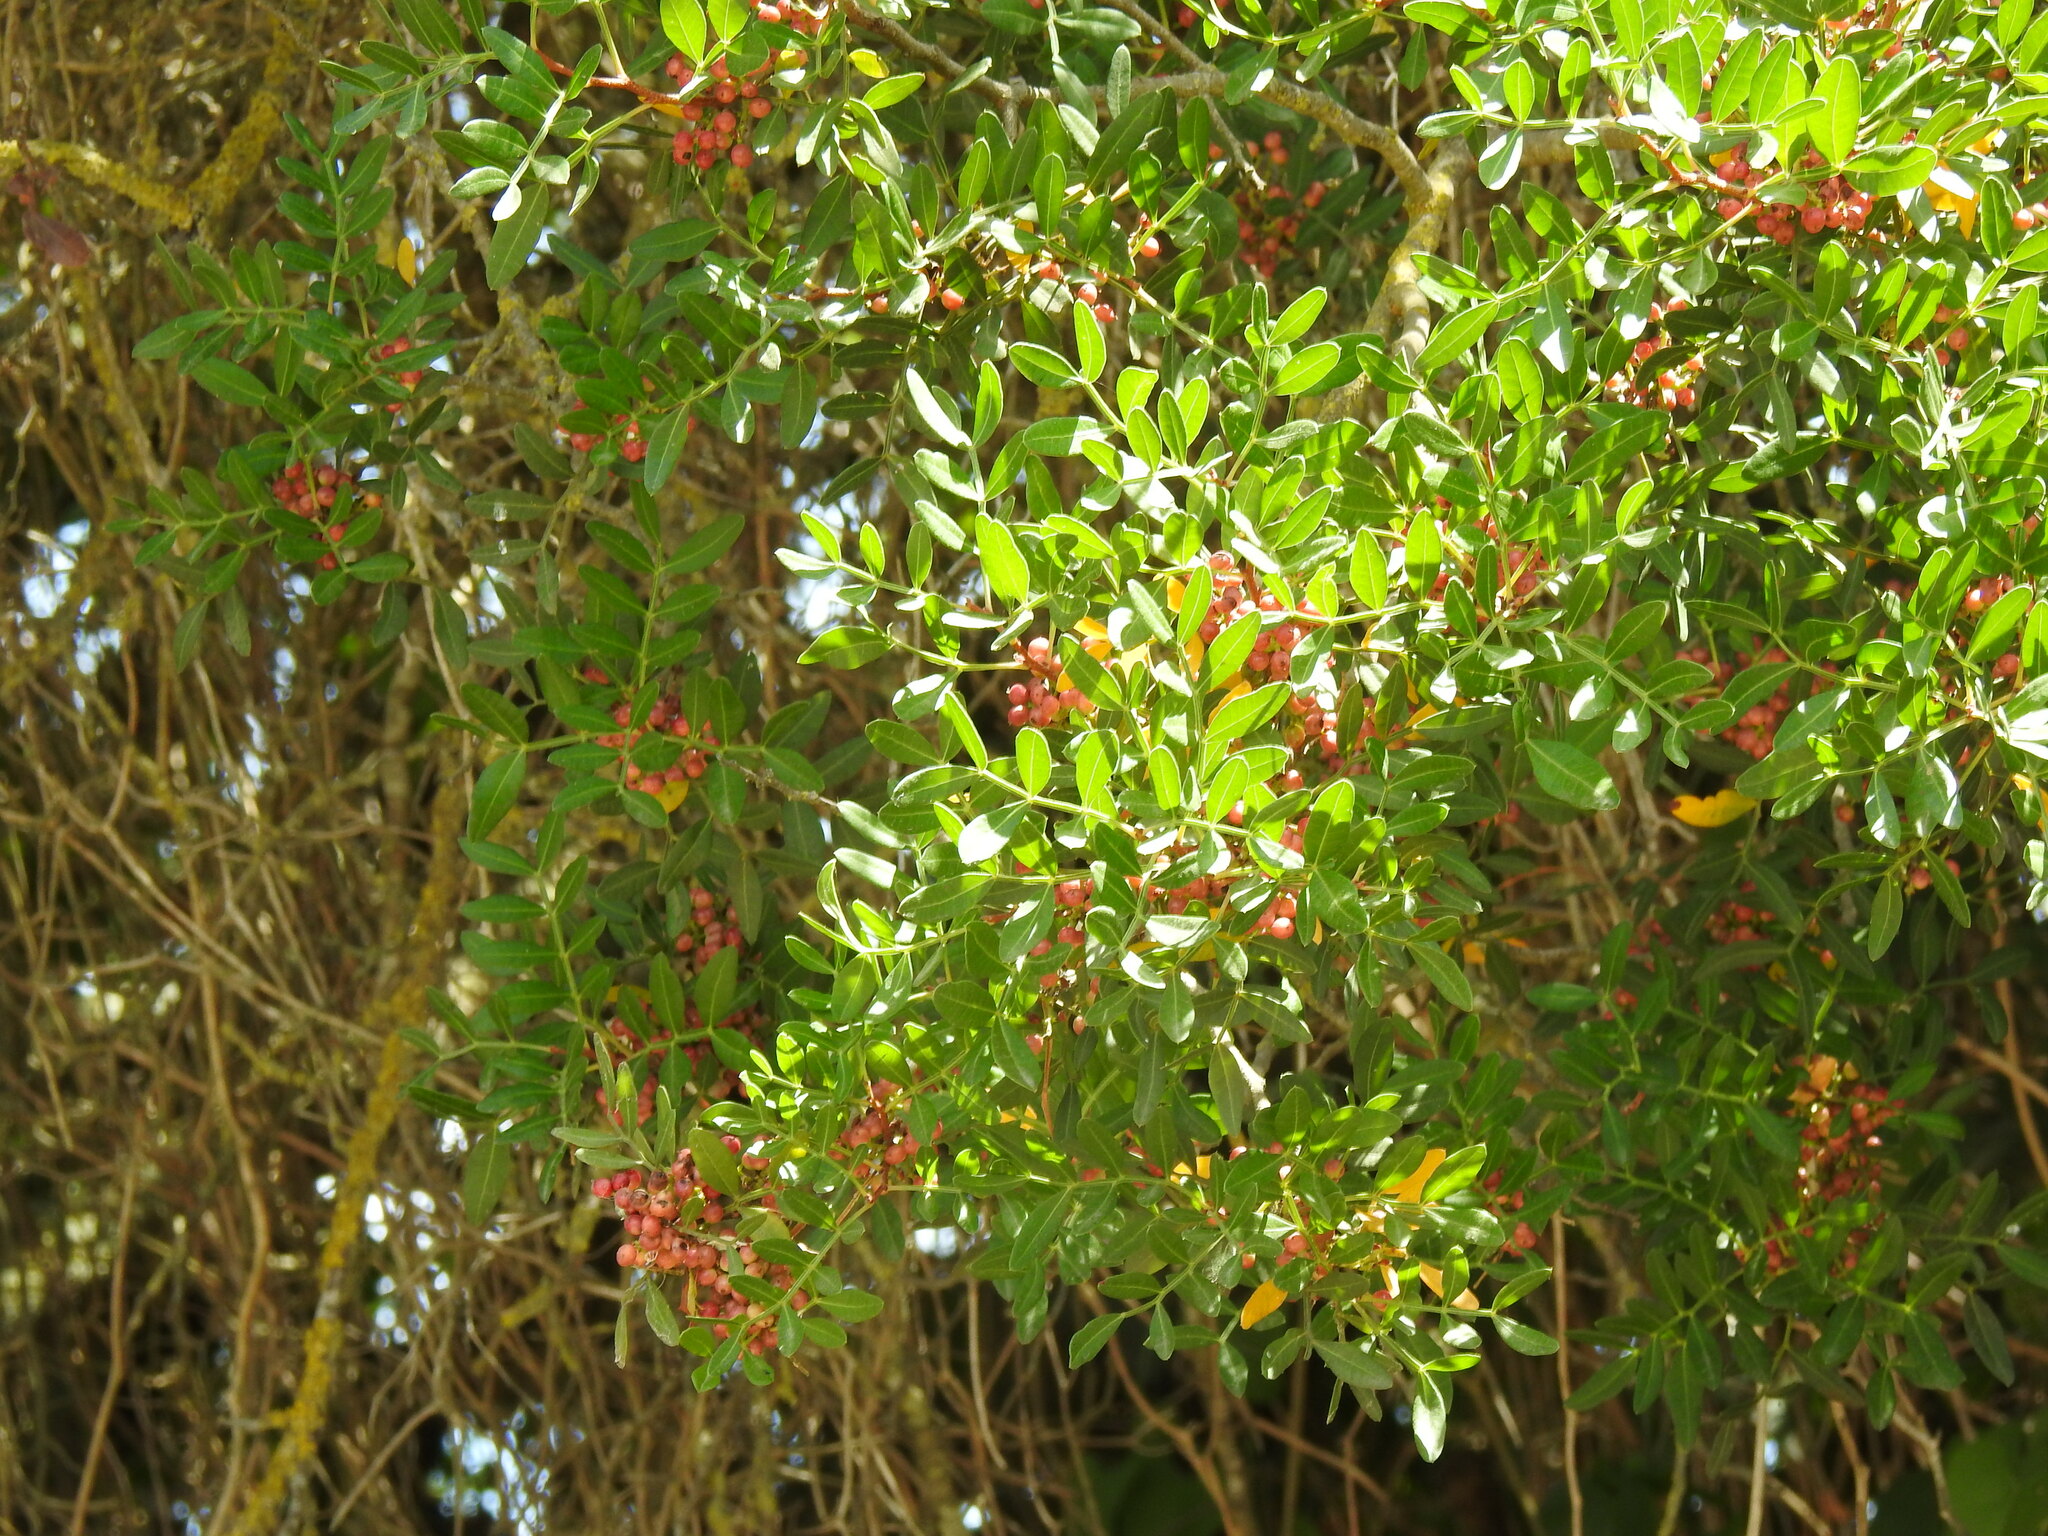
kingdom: Plantae
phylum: Tracheophyta
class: Magnoliopsida
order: Sapindales
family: Anacardiaceae
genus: Pistacia
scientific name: Pistacia lentiscus
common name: Lentisk
